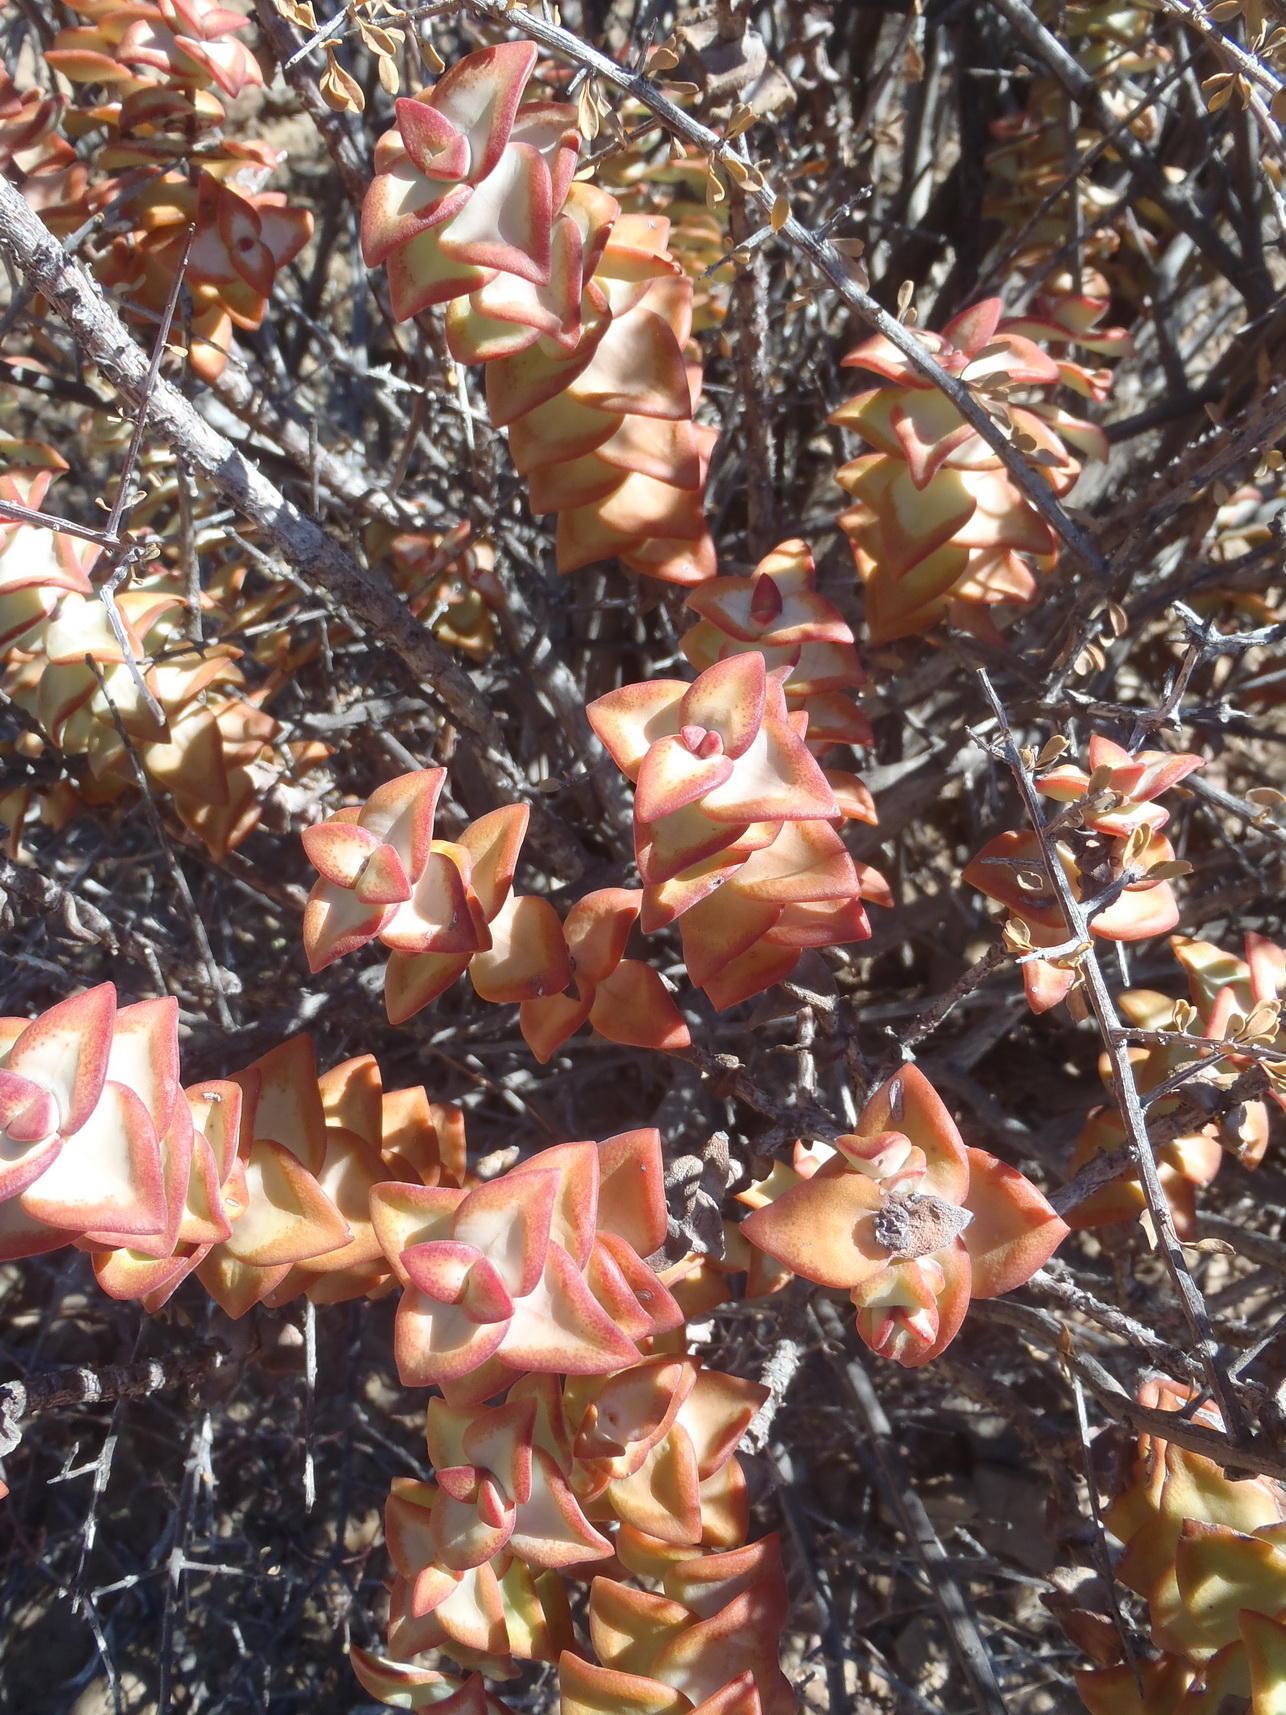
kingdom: Plantae
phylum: Tracheophyta
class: Magnoliopsida
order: Saxifragales
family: Crassulaceae
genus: Crassula
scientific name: Crassula rupestris
